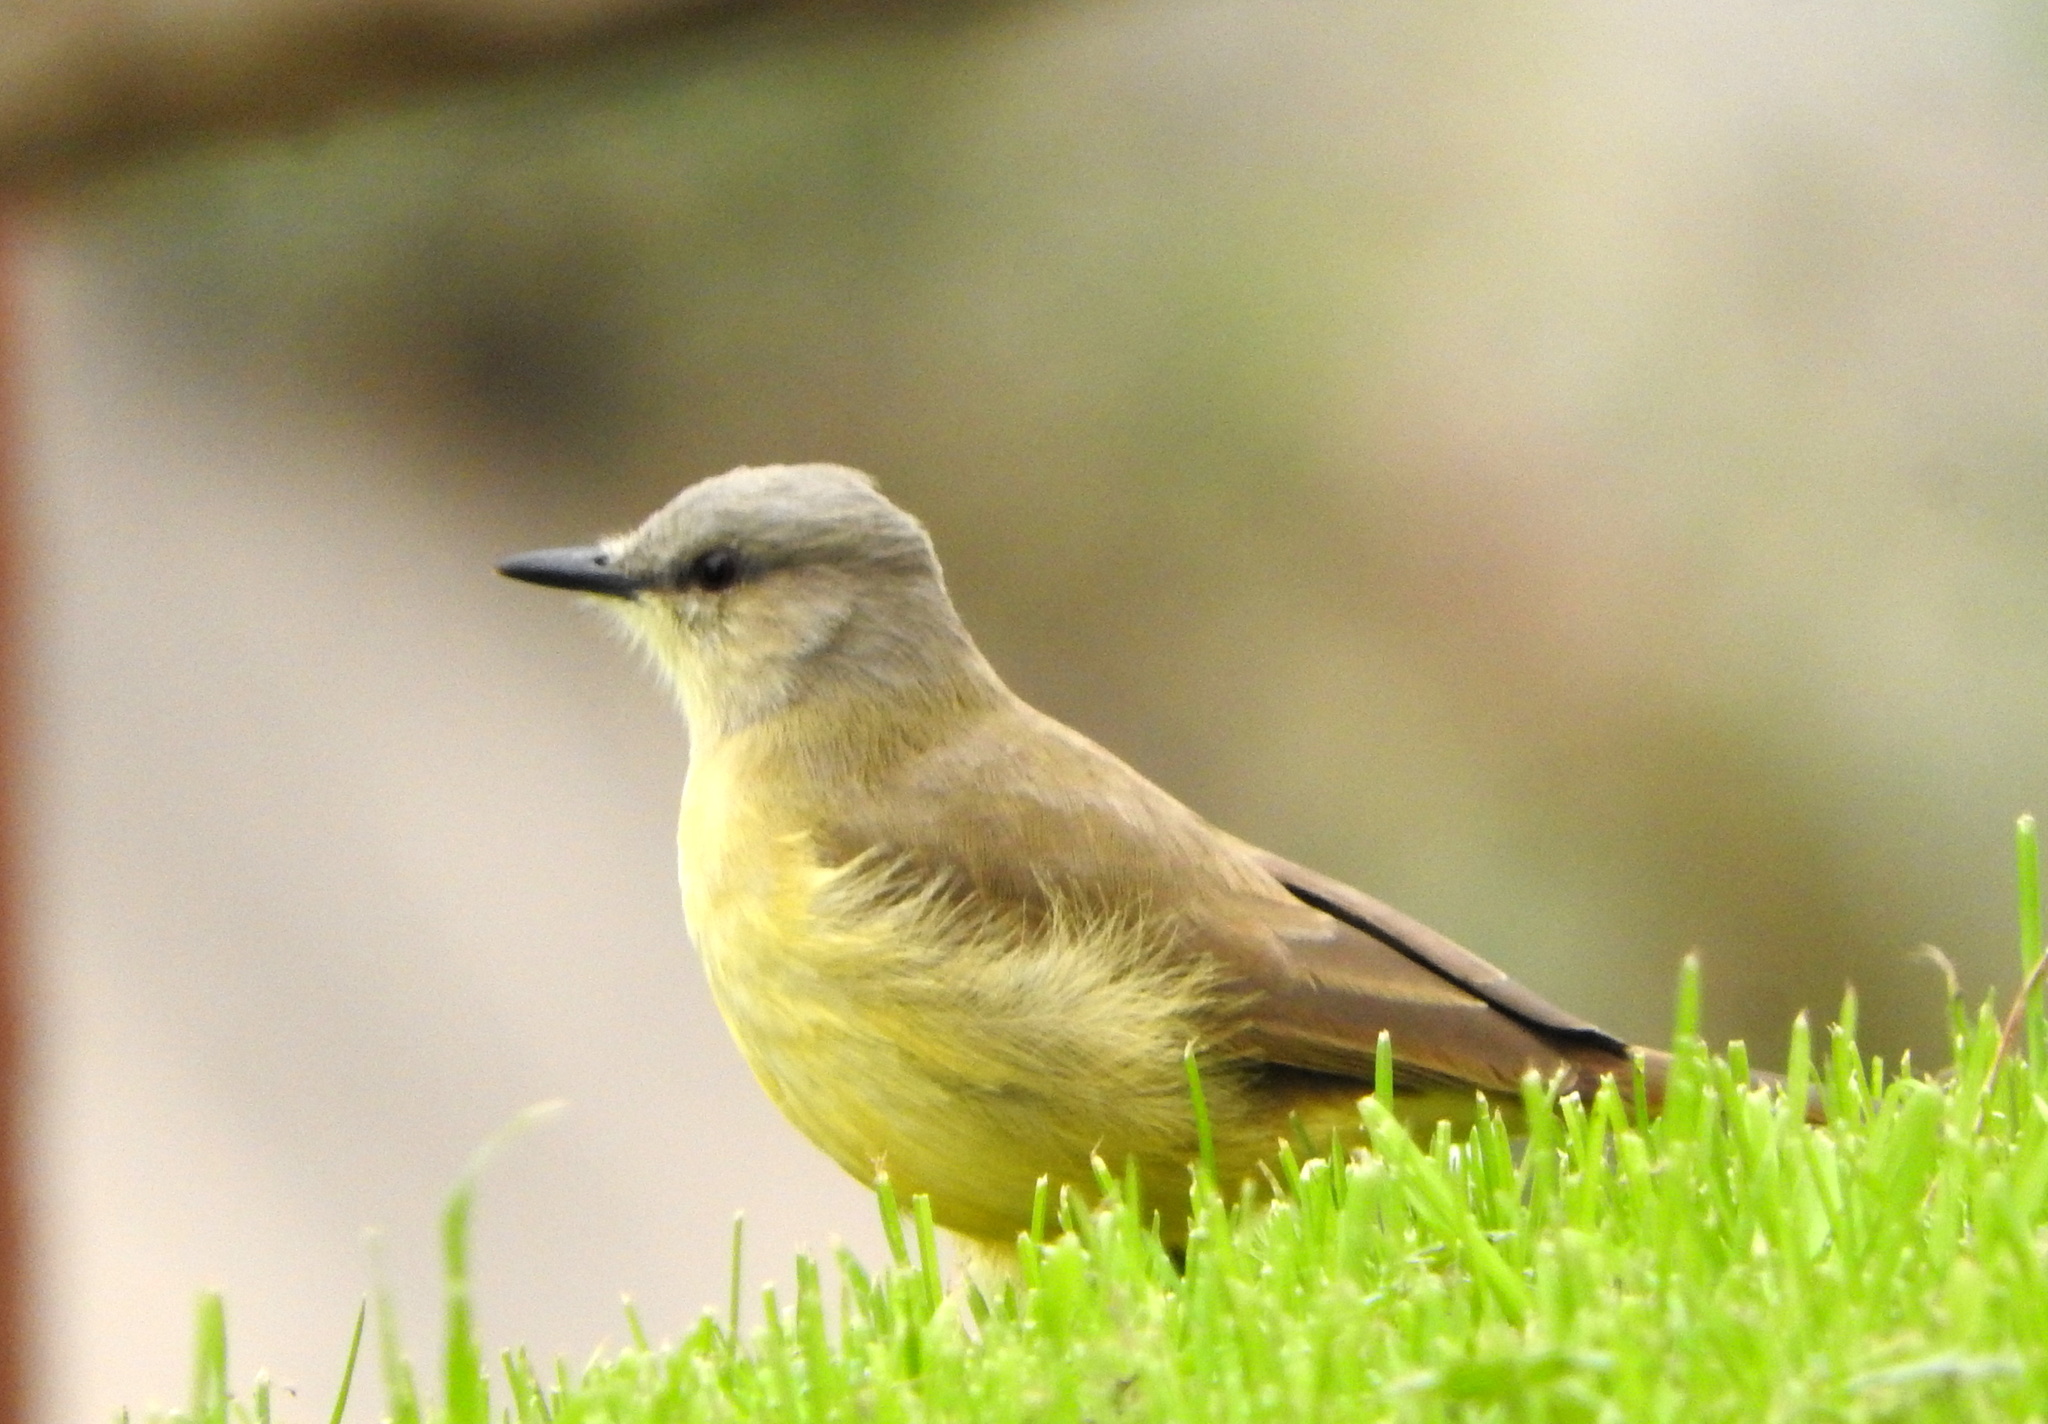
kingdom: Animalia
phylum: Chordata
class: Aves
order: Passeriformes
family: Tyrannidae
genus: Machetornis
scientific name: Machetornis rixosa
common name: Cattle tyrant
